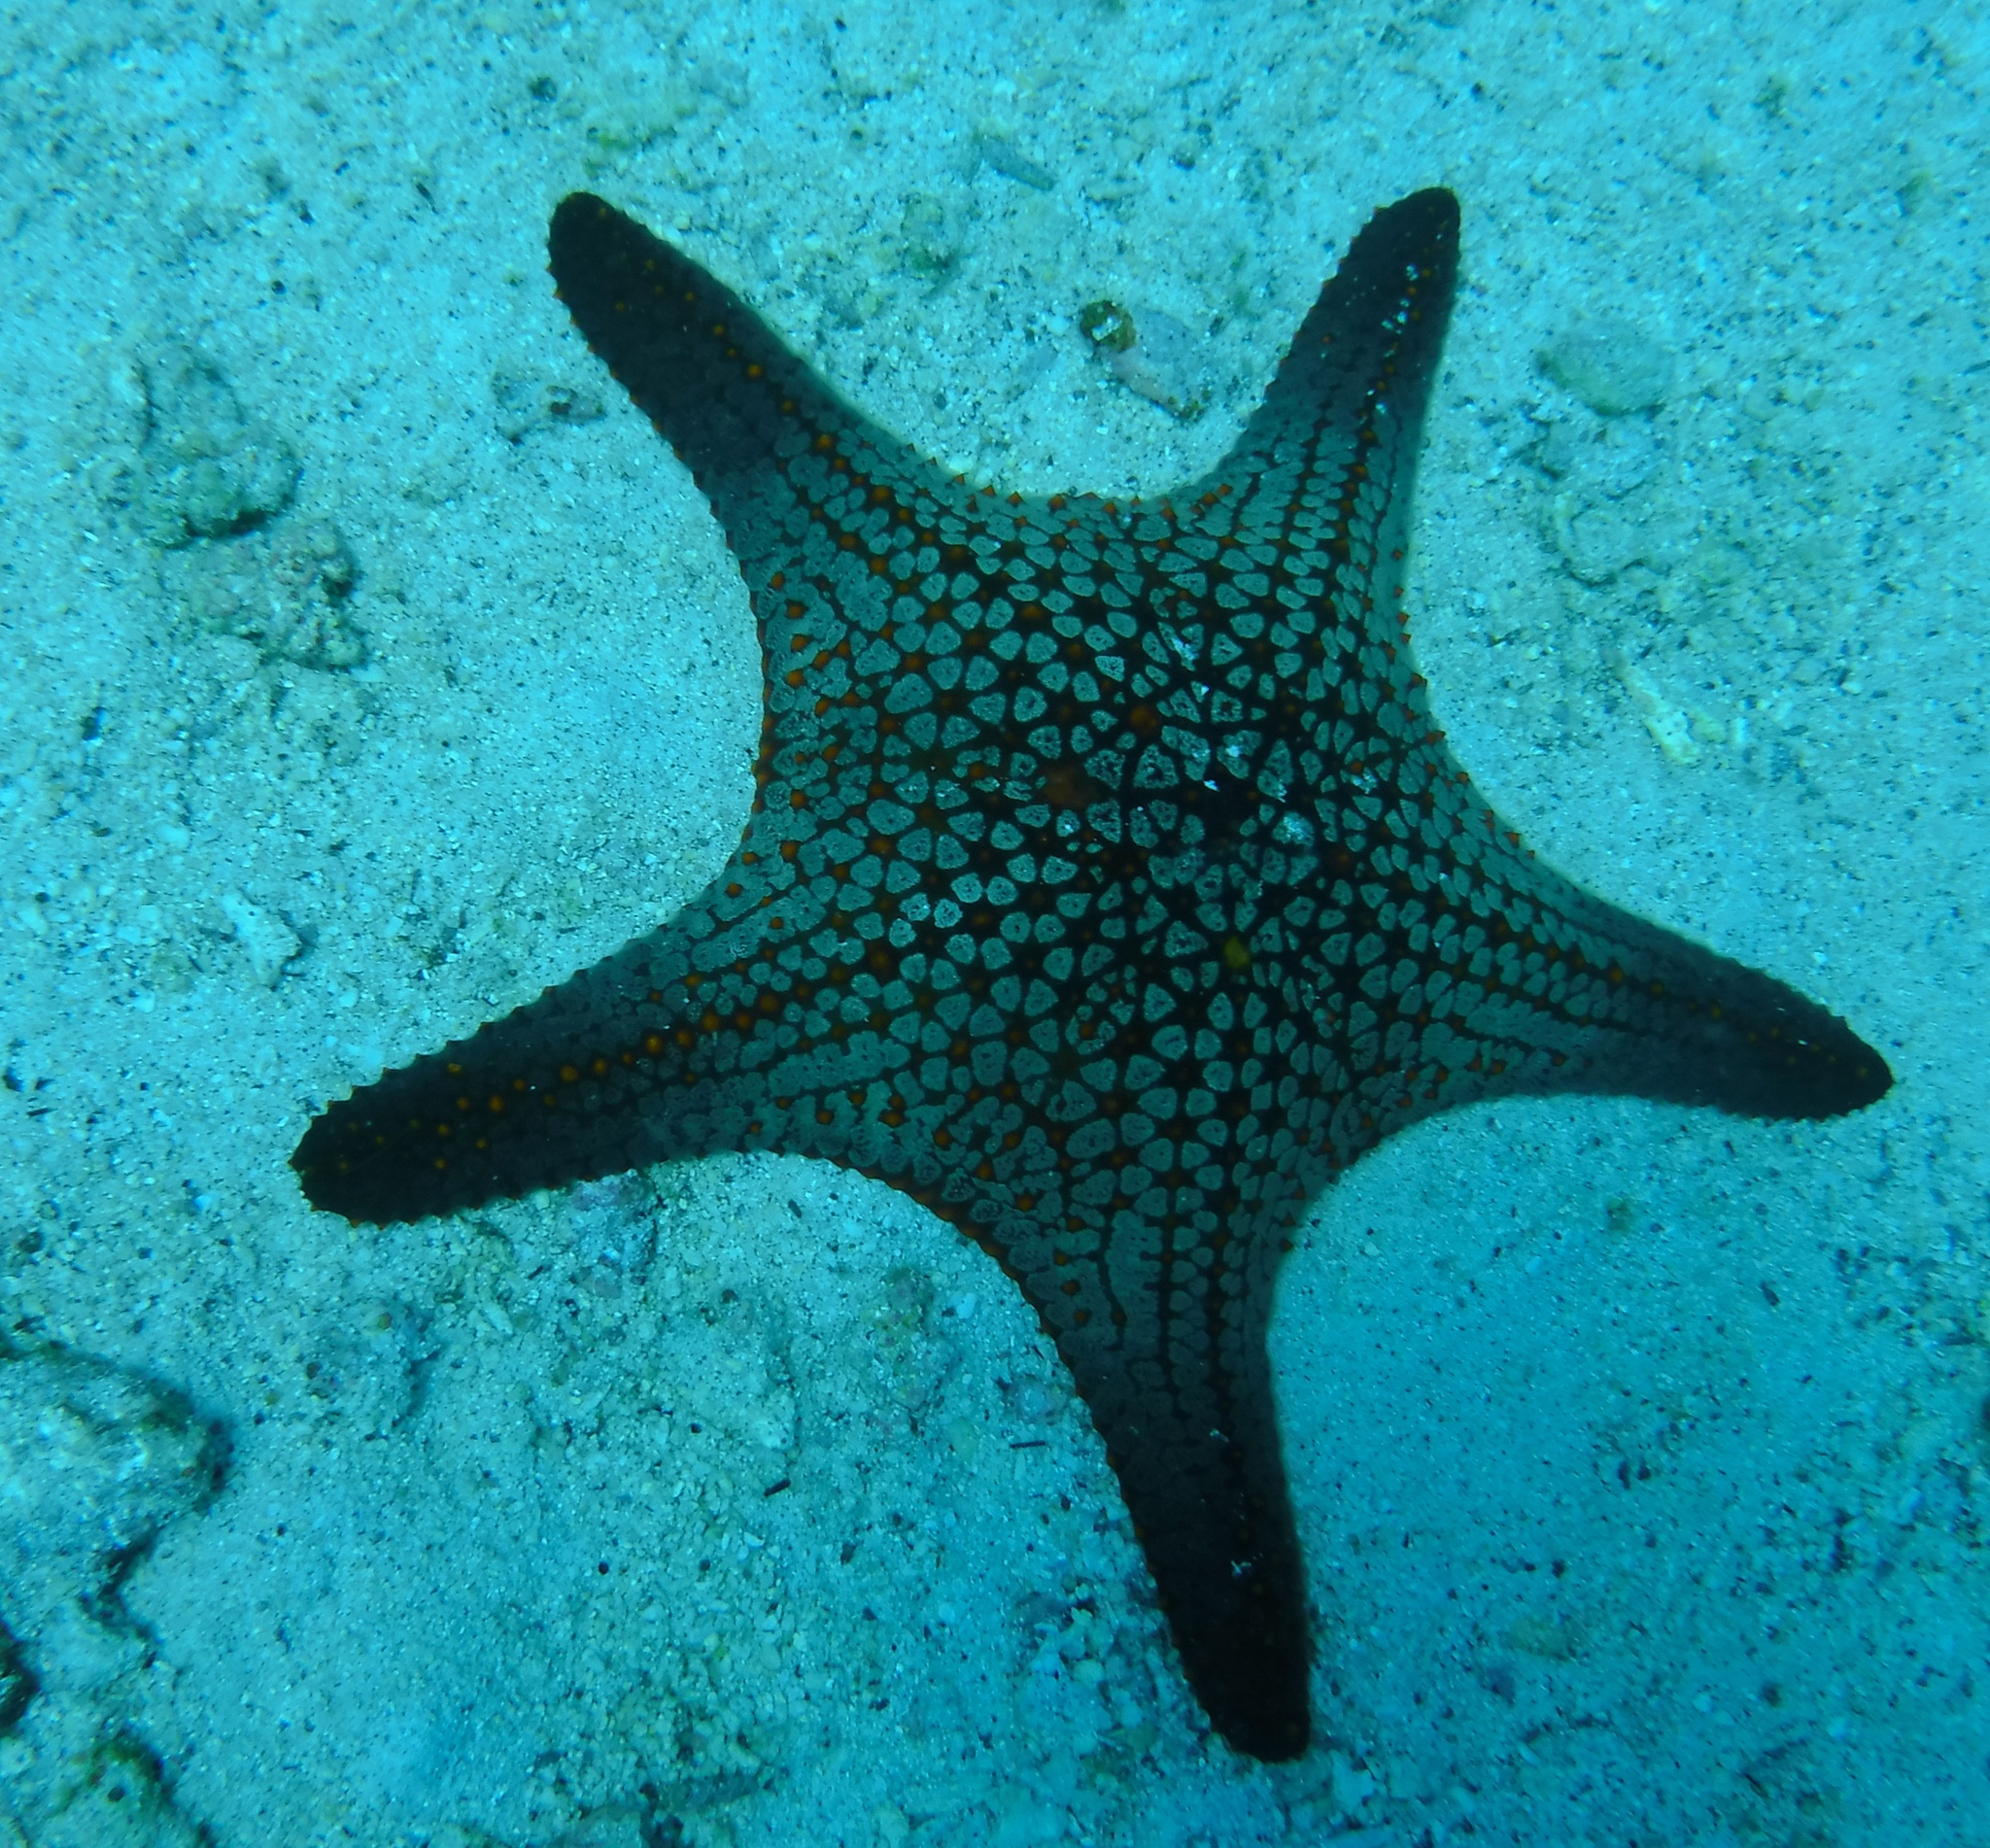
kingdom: Animalia
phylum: Echinodermata
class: Asteroidea
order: Valvatida
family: Oreasteridae
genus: Pentaceraster
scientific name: Pentaceraster cumingi
